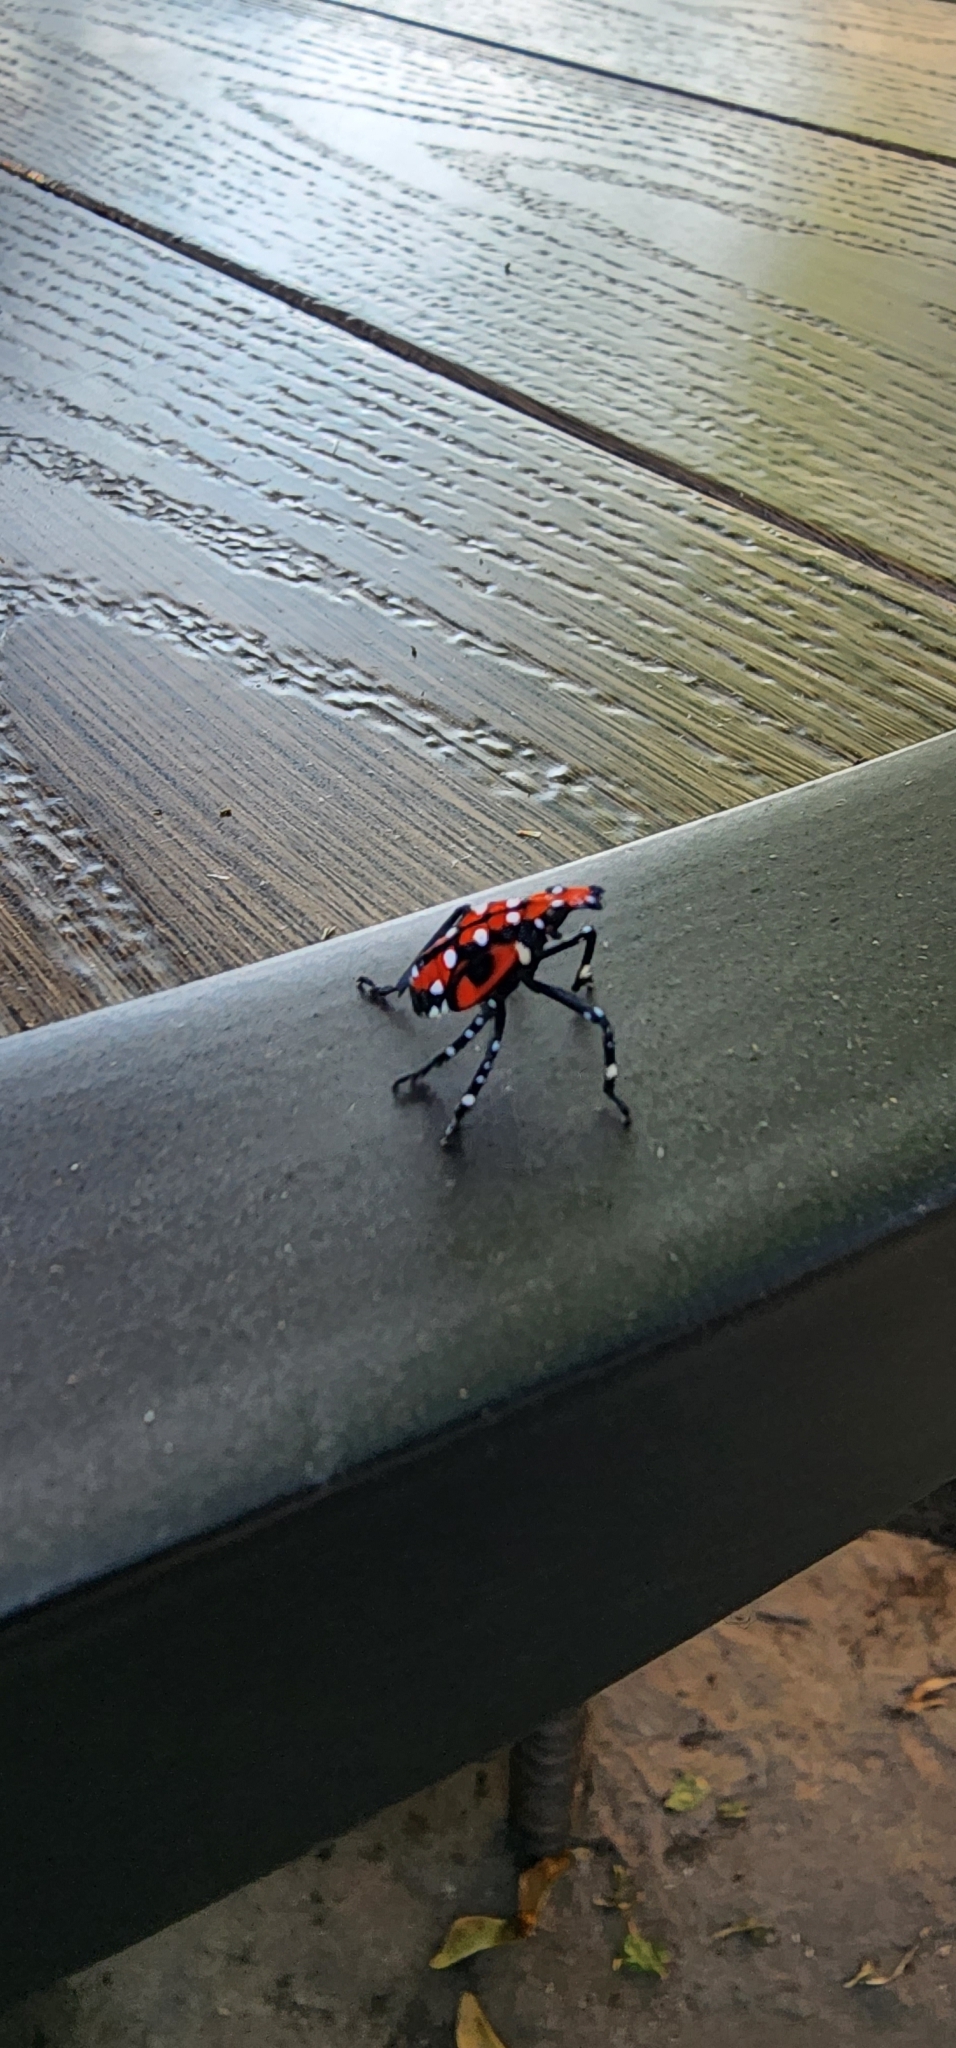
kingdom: Animalia
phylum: Arthropoda
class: Insecta
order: Hemiptera
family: Fulgoridae
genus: Lycorma
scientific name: Lycorma delicatula
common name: Spotted lanternfly
